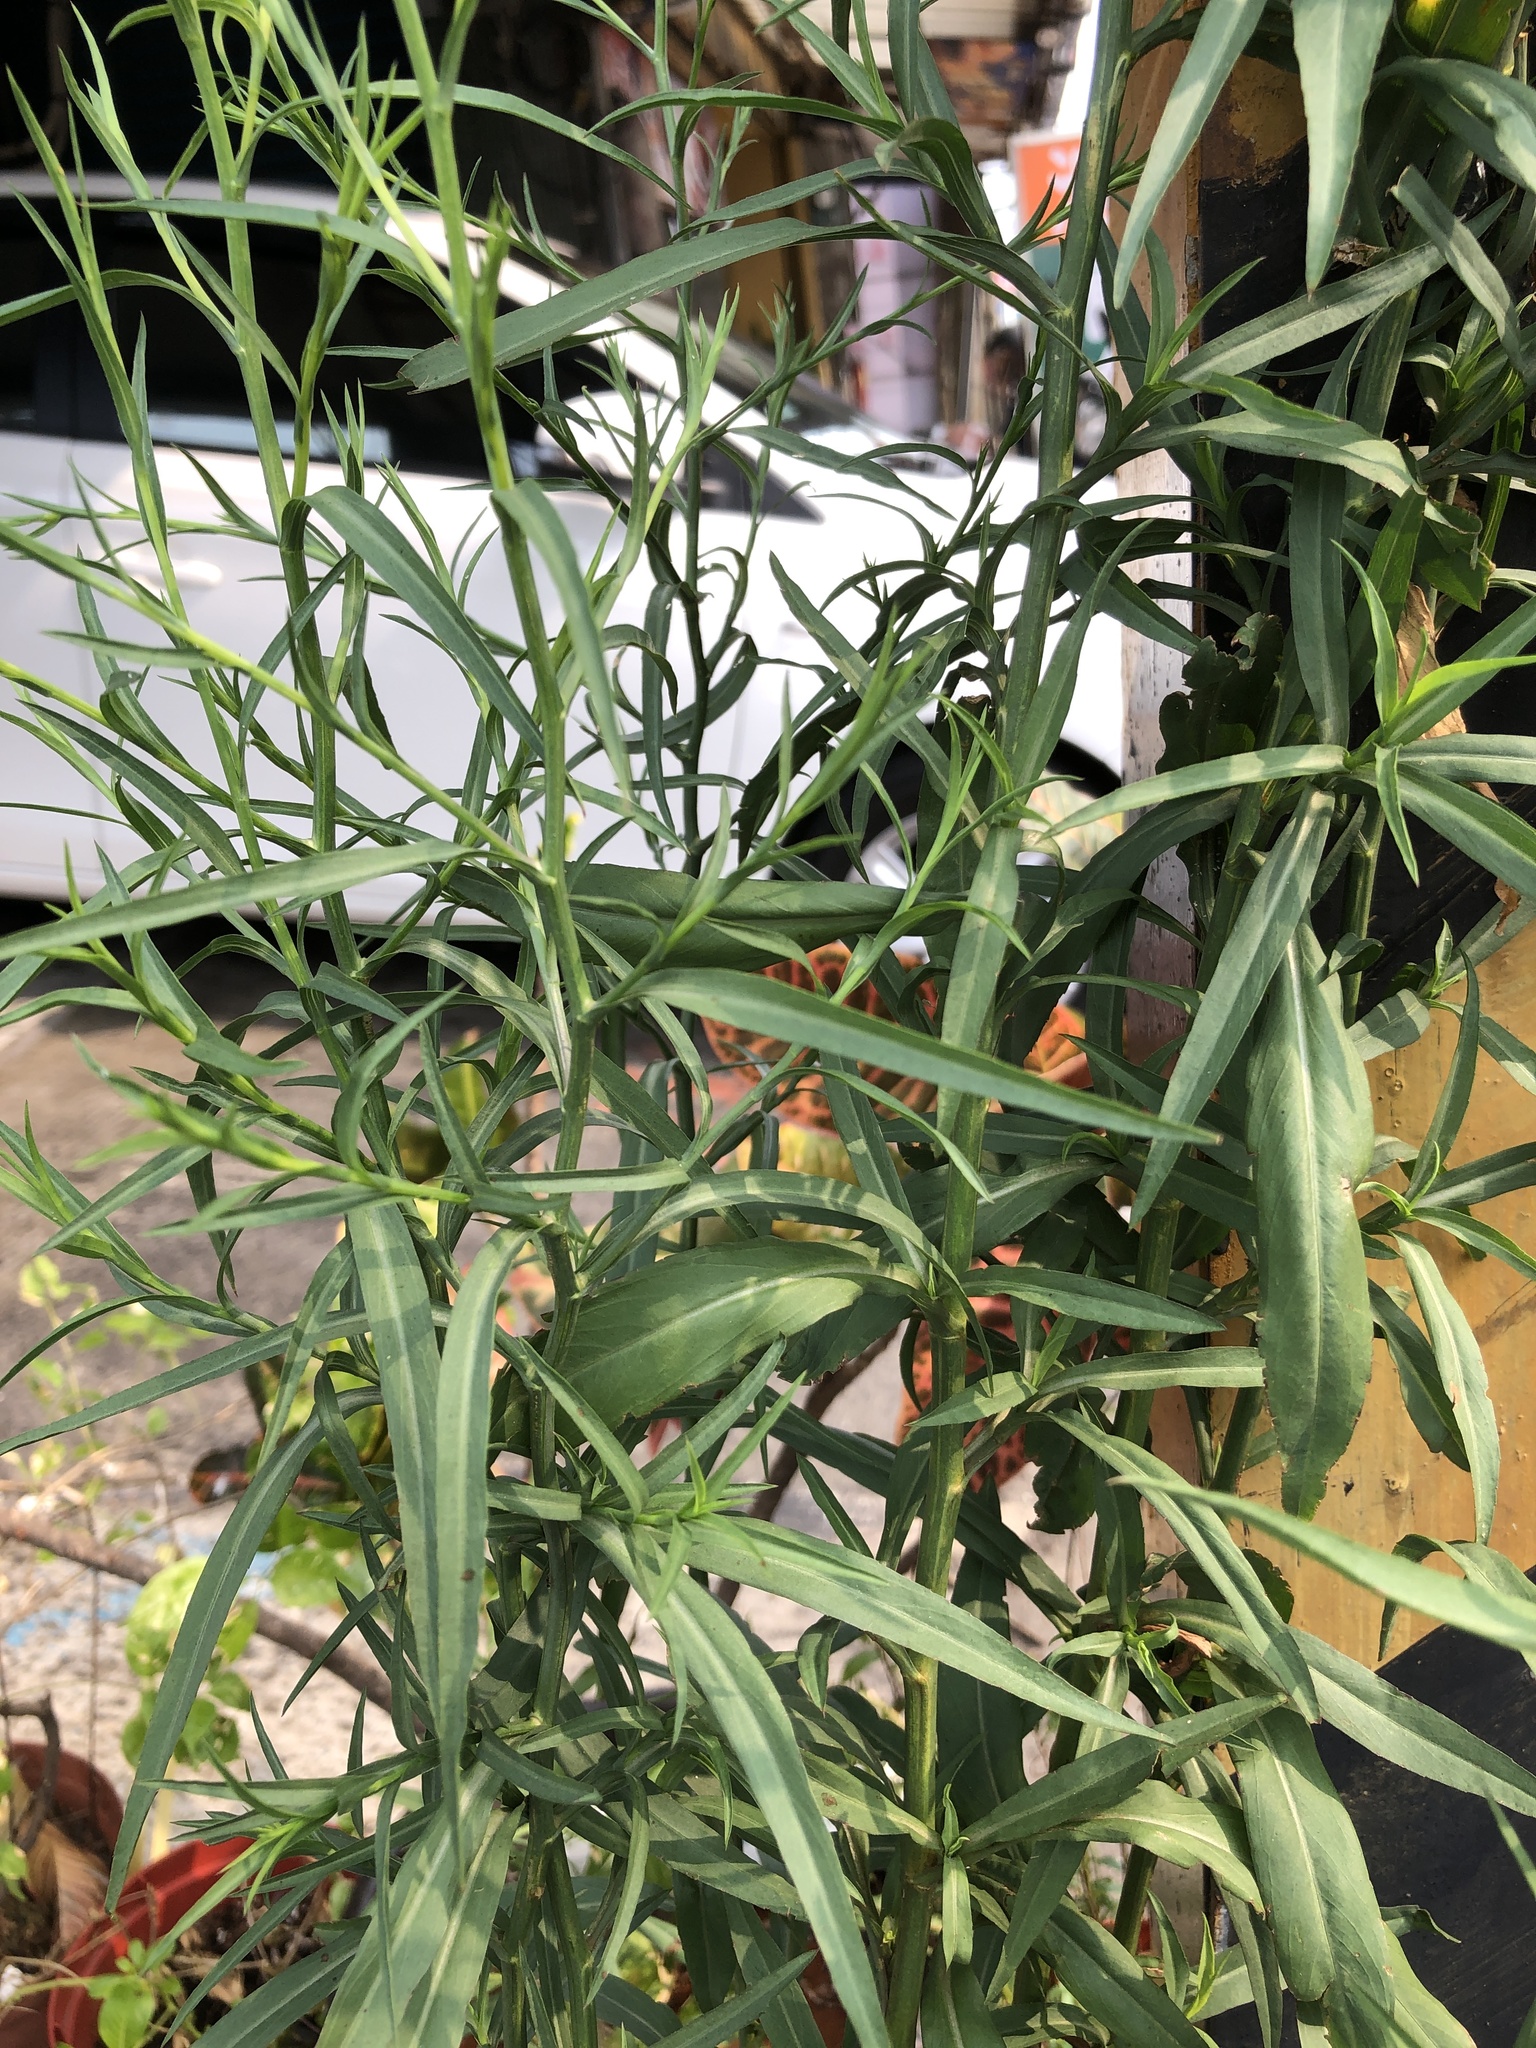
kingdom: Plantae
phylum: Tracheophyta
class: Magnoliopsida
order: Asterales
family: Asteraceae
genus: Symphyotrichum
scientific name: Symphyotrichum subulatum
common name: Annual saltmarsh aster
